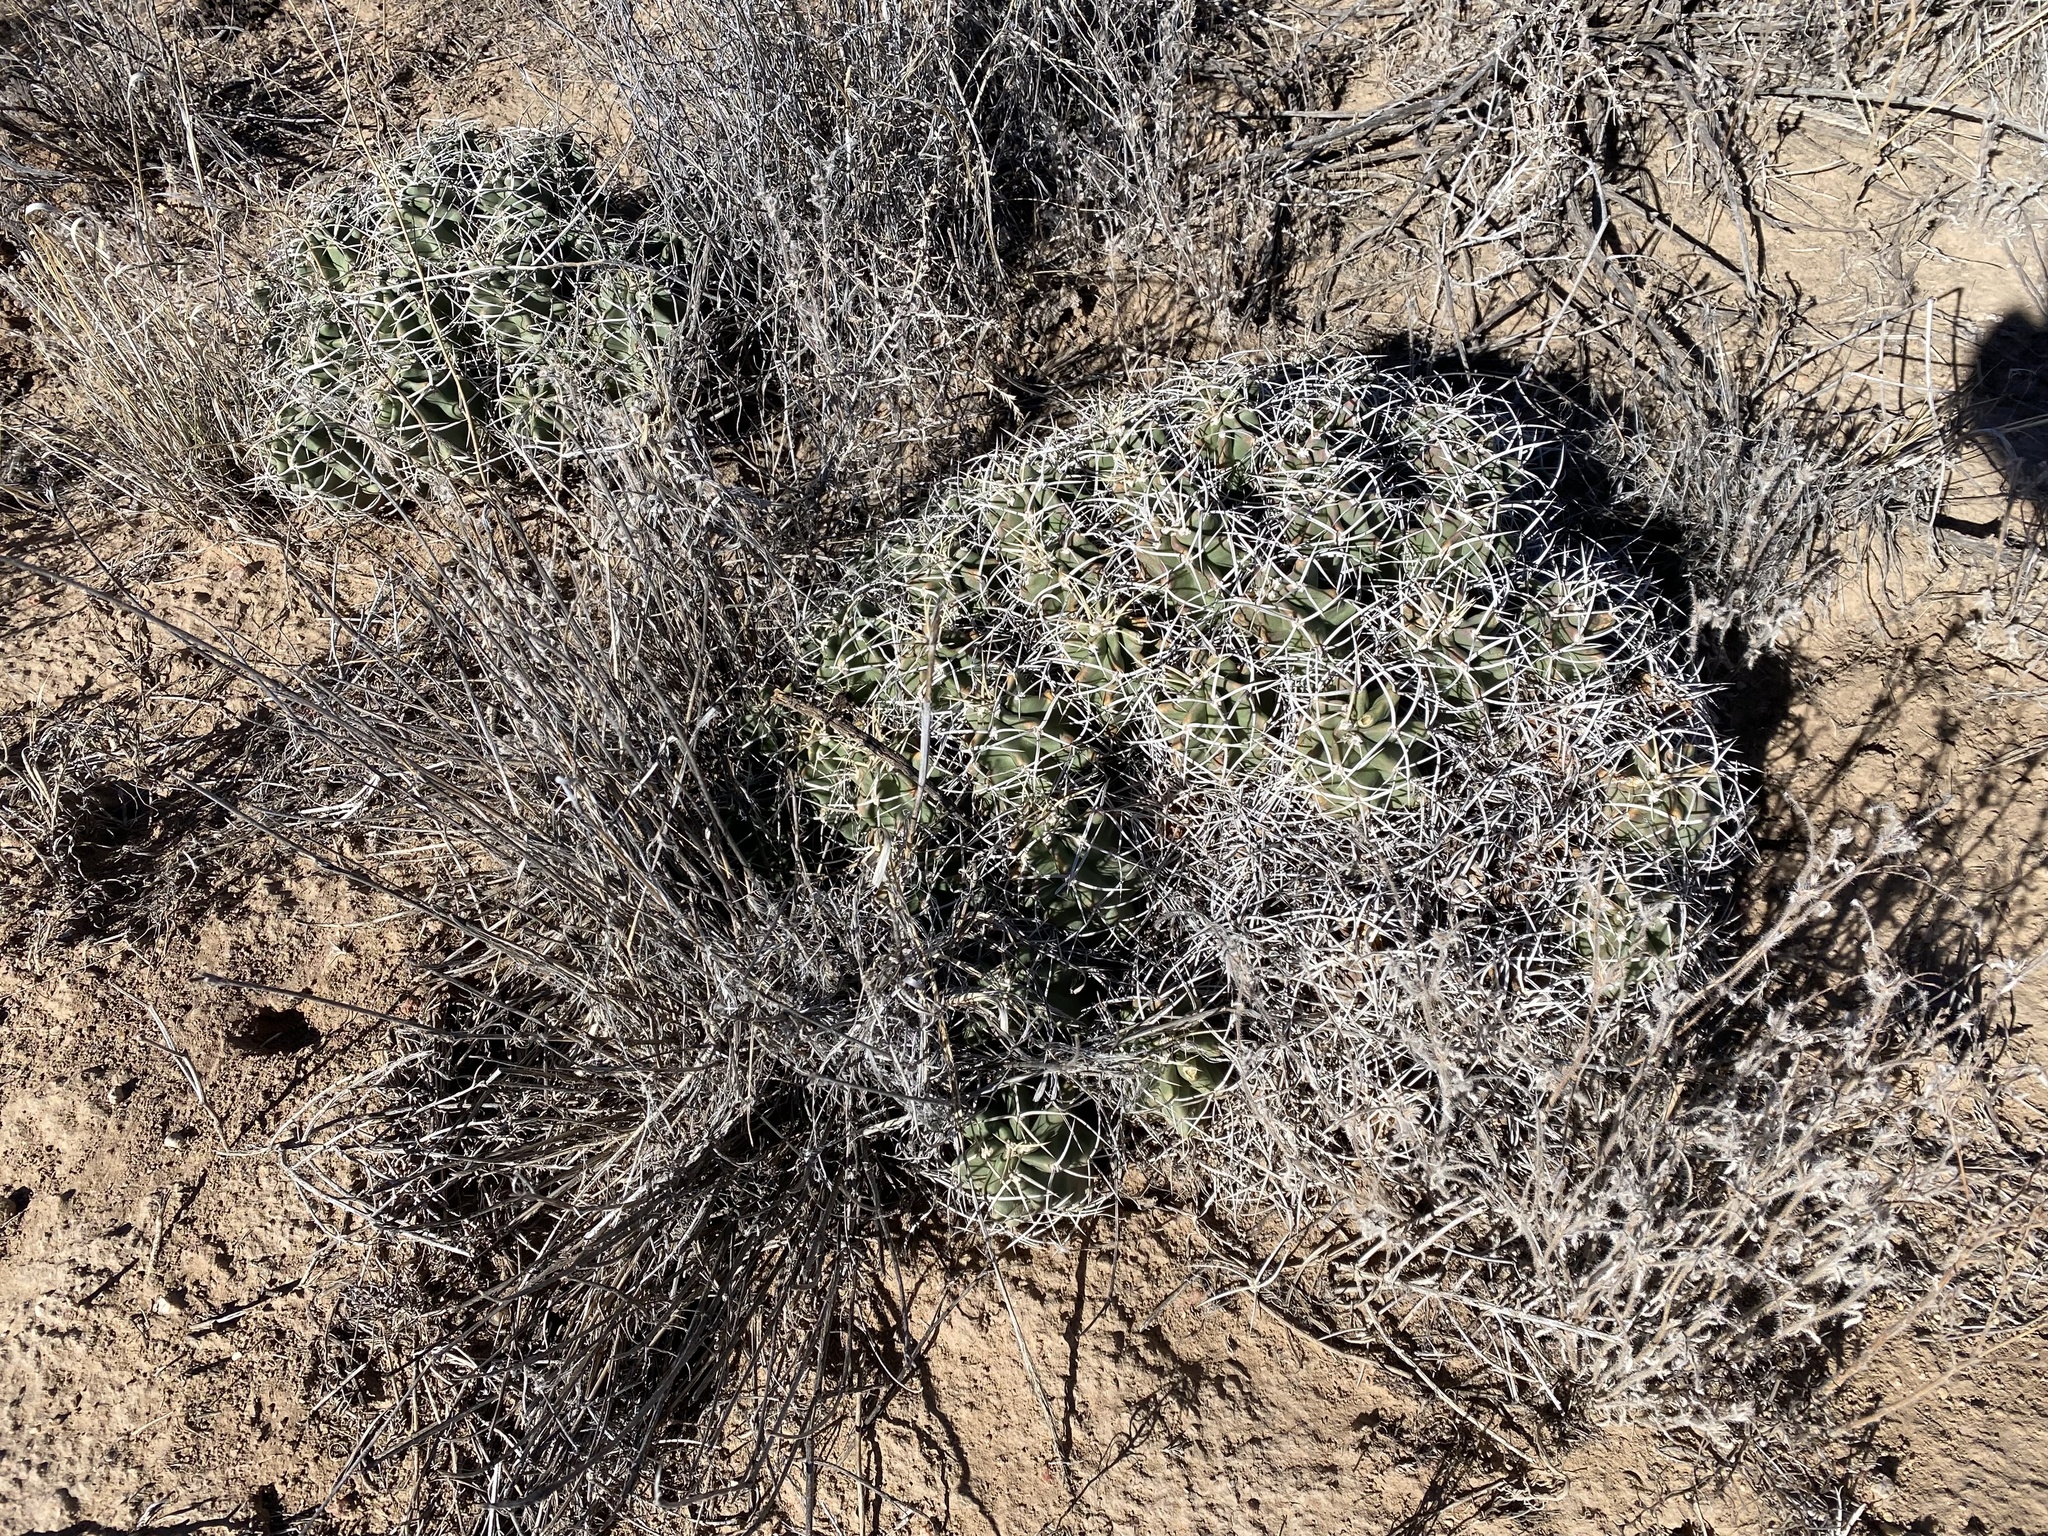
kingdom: Plantae
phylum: Tracheophyta
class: Magnoliopsida
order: Caryophyllales
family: Cactaceae
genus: Echinocereus
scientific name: Echinocereus triglochidiatus
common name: Claretcup hedgehog
